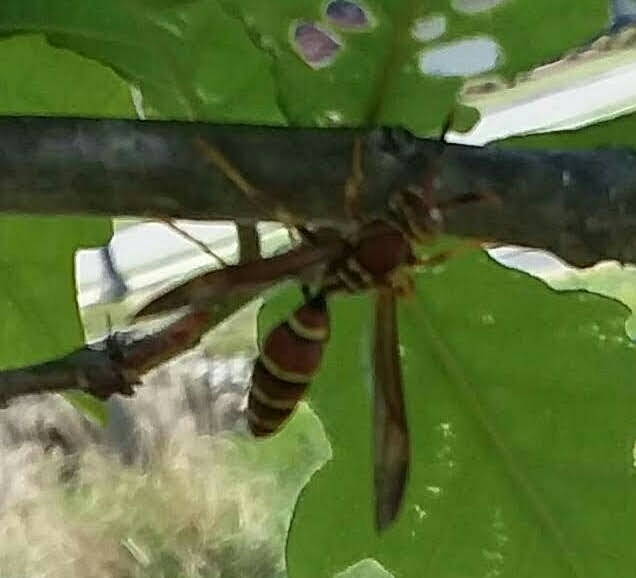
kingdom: Animalia
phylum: Arthropoda
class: Insecta
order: Hymenoptera
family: Eumenidae
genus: Polistes
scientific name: Polistes exclamans
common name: Paper wasp
